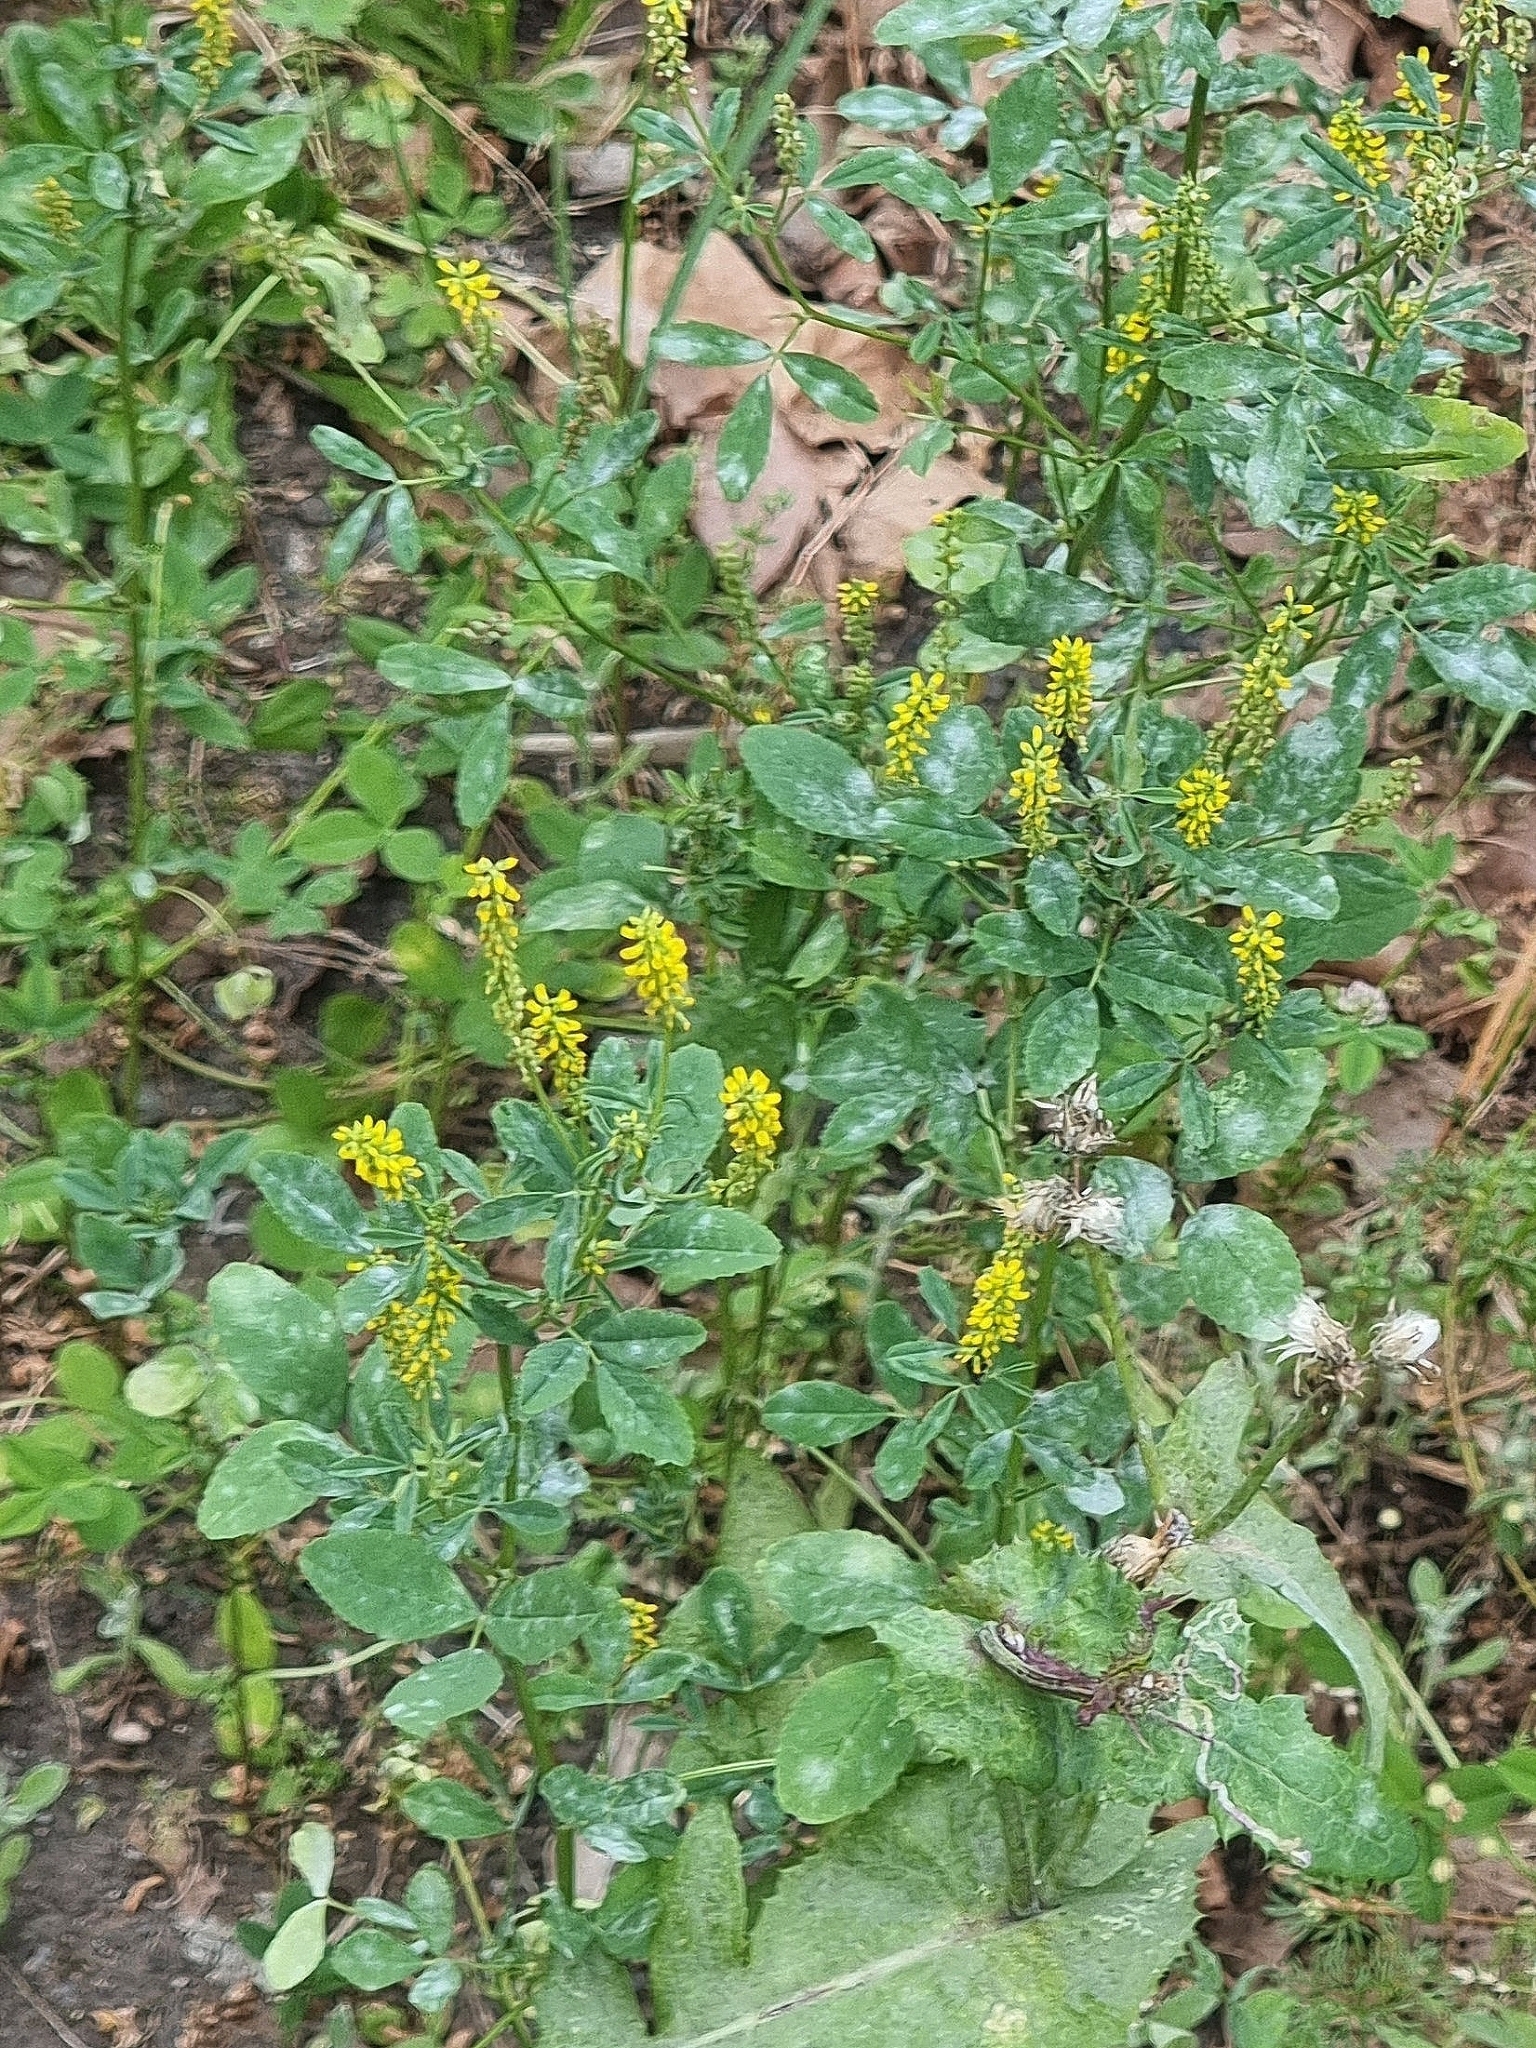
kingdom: Plantae
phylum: Tracheophyta
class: Magnoliopsida
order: Fabales
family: Fabaceae
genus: Melilotus
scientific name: Melilotus indicus
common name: Small melilot
